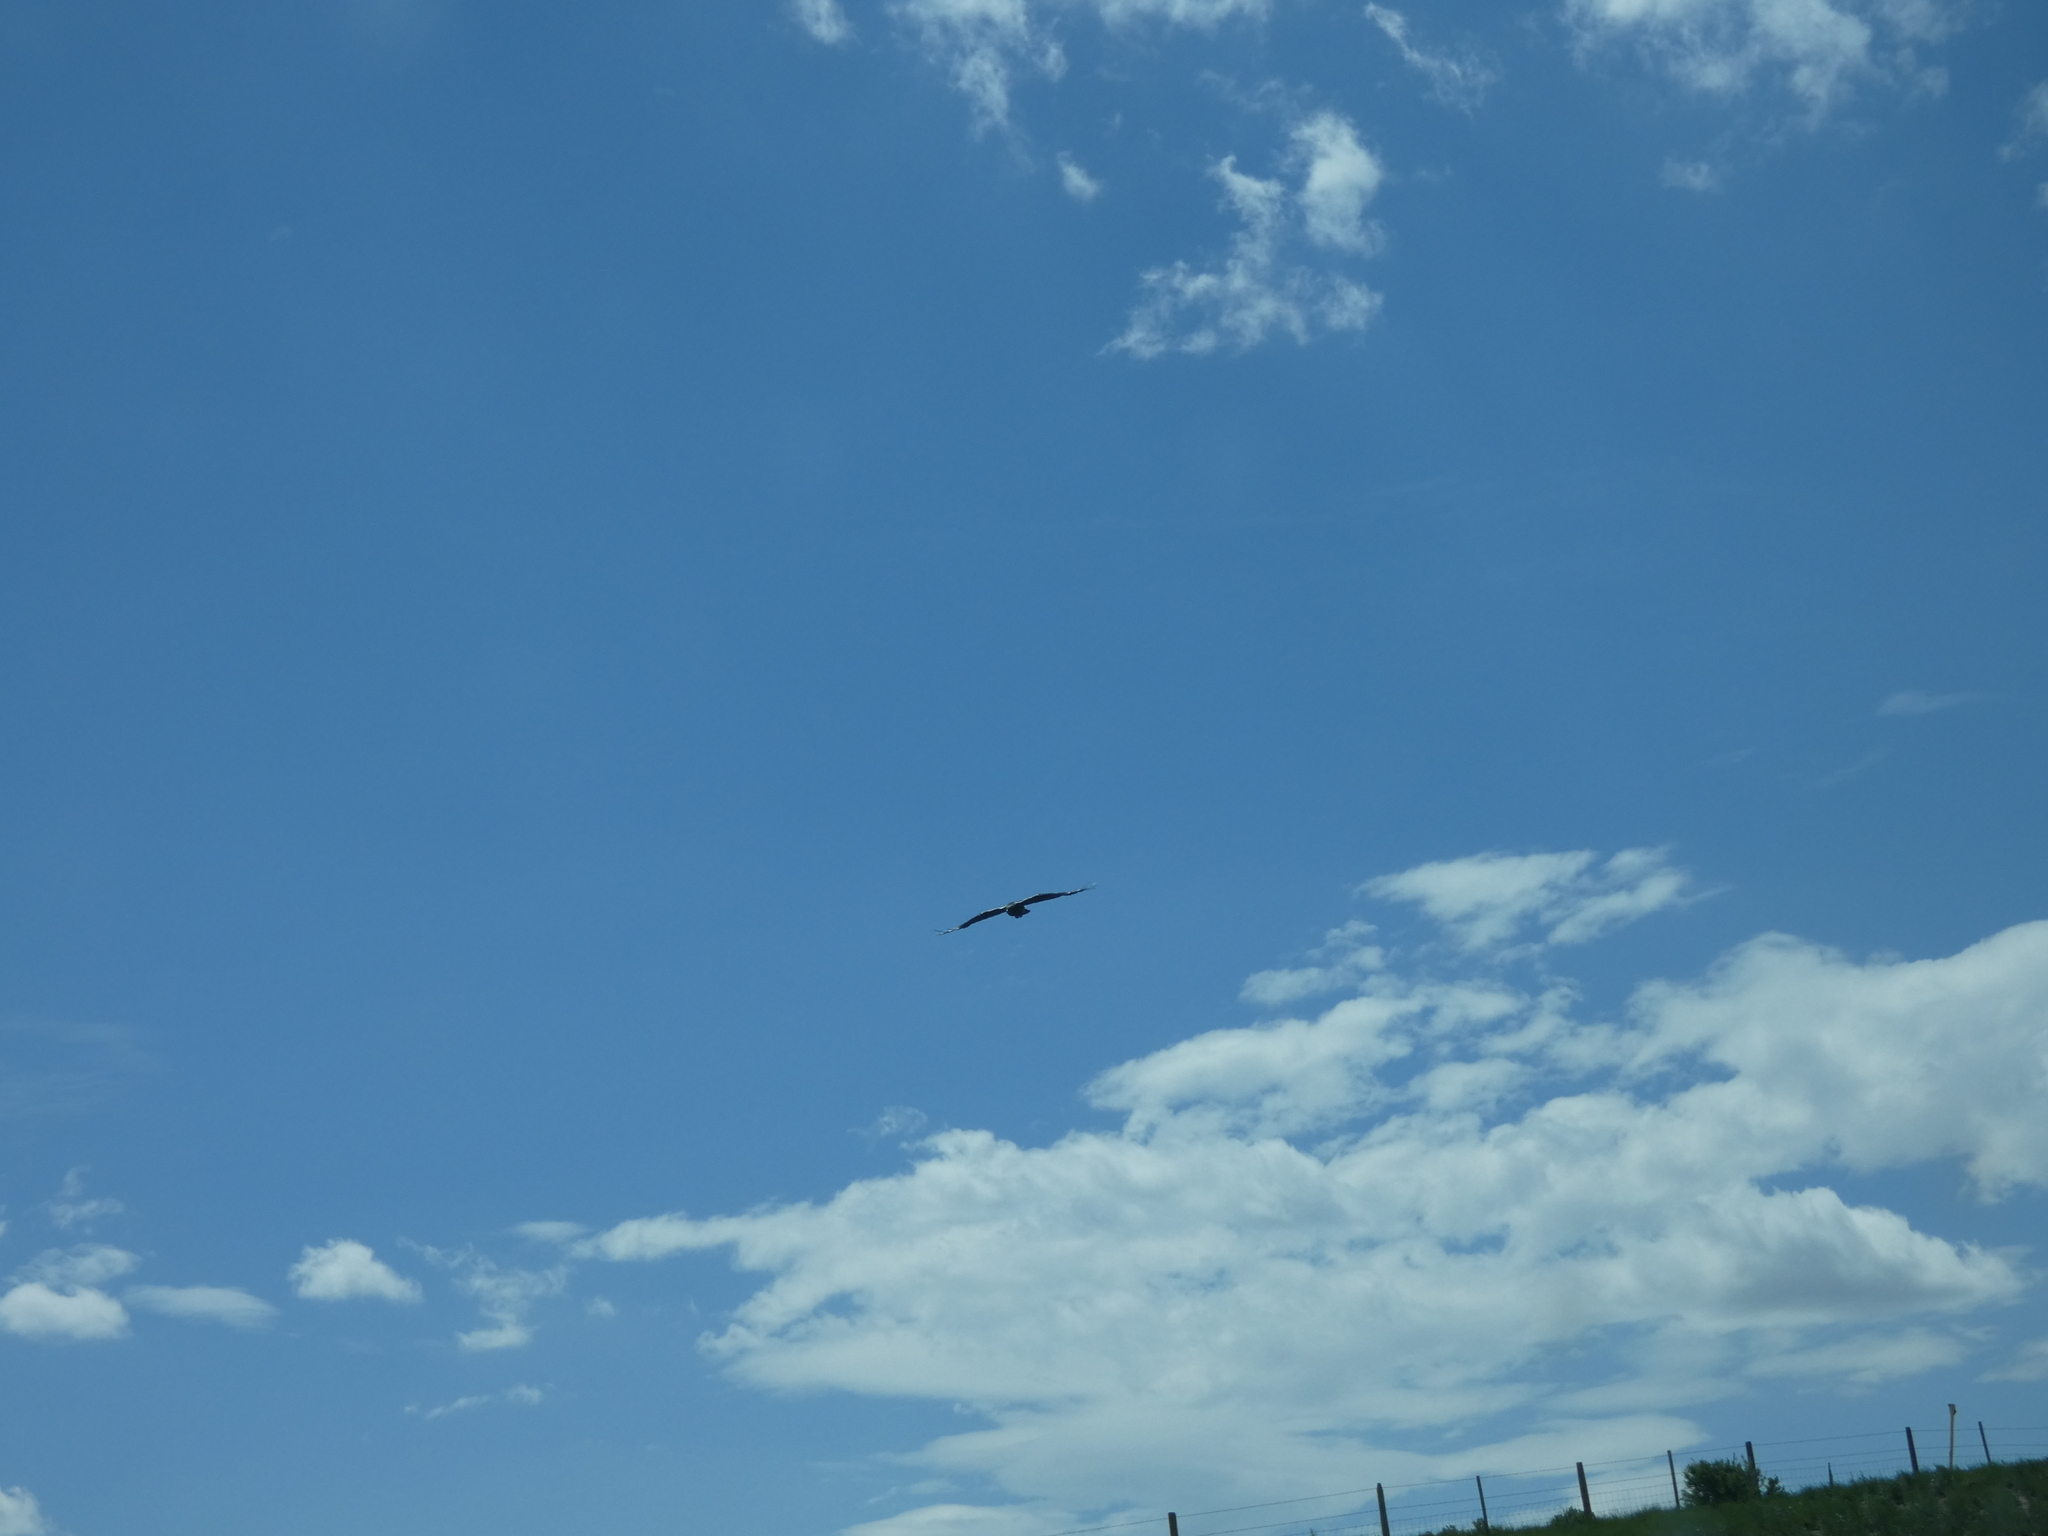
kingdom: Animalia
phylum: Chordata
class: Aves
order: Passeriformes
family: Corvidae
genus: Corvus
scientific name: Corvus corax
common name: Common raven
